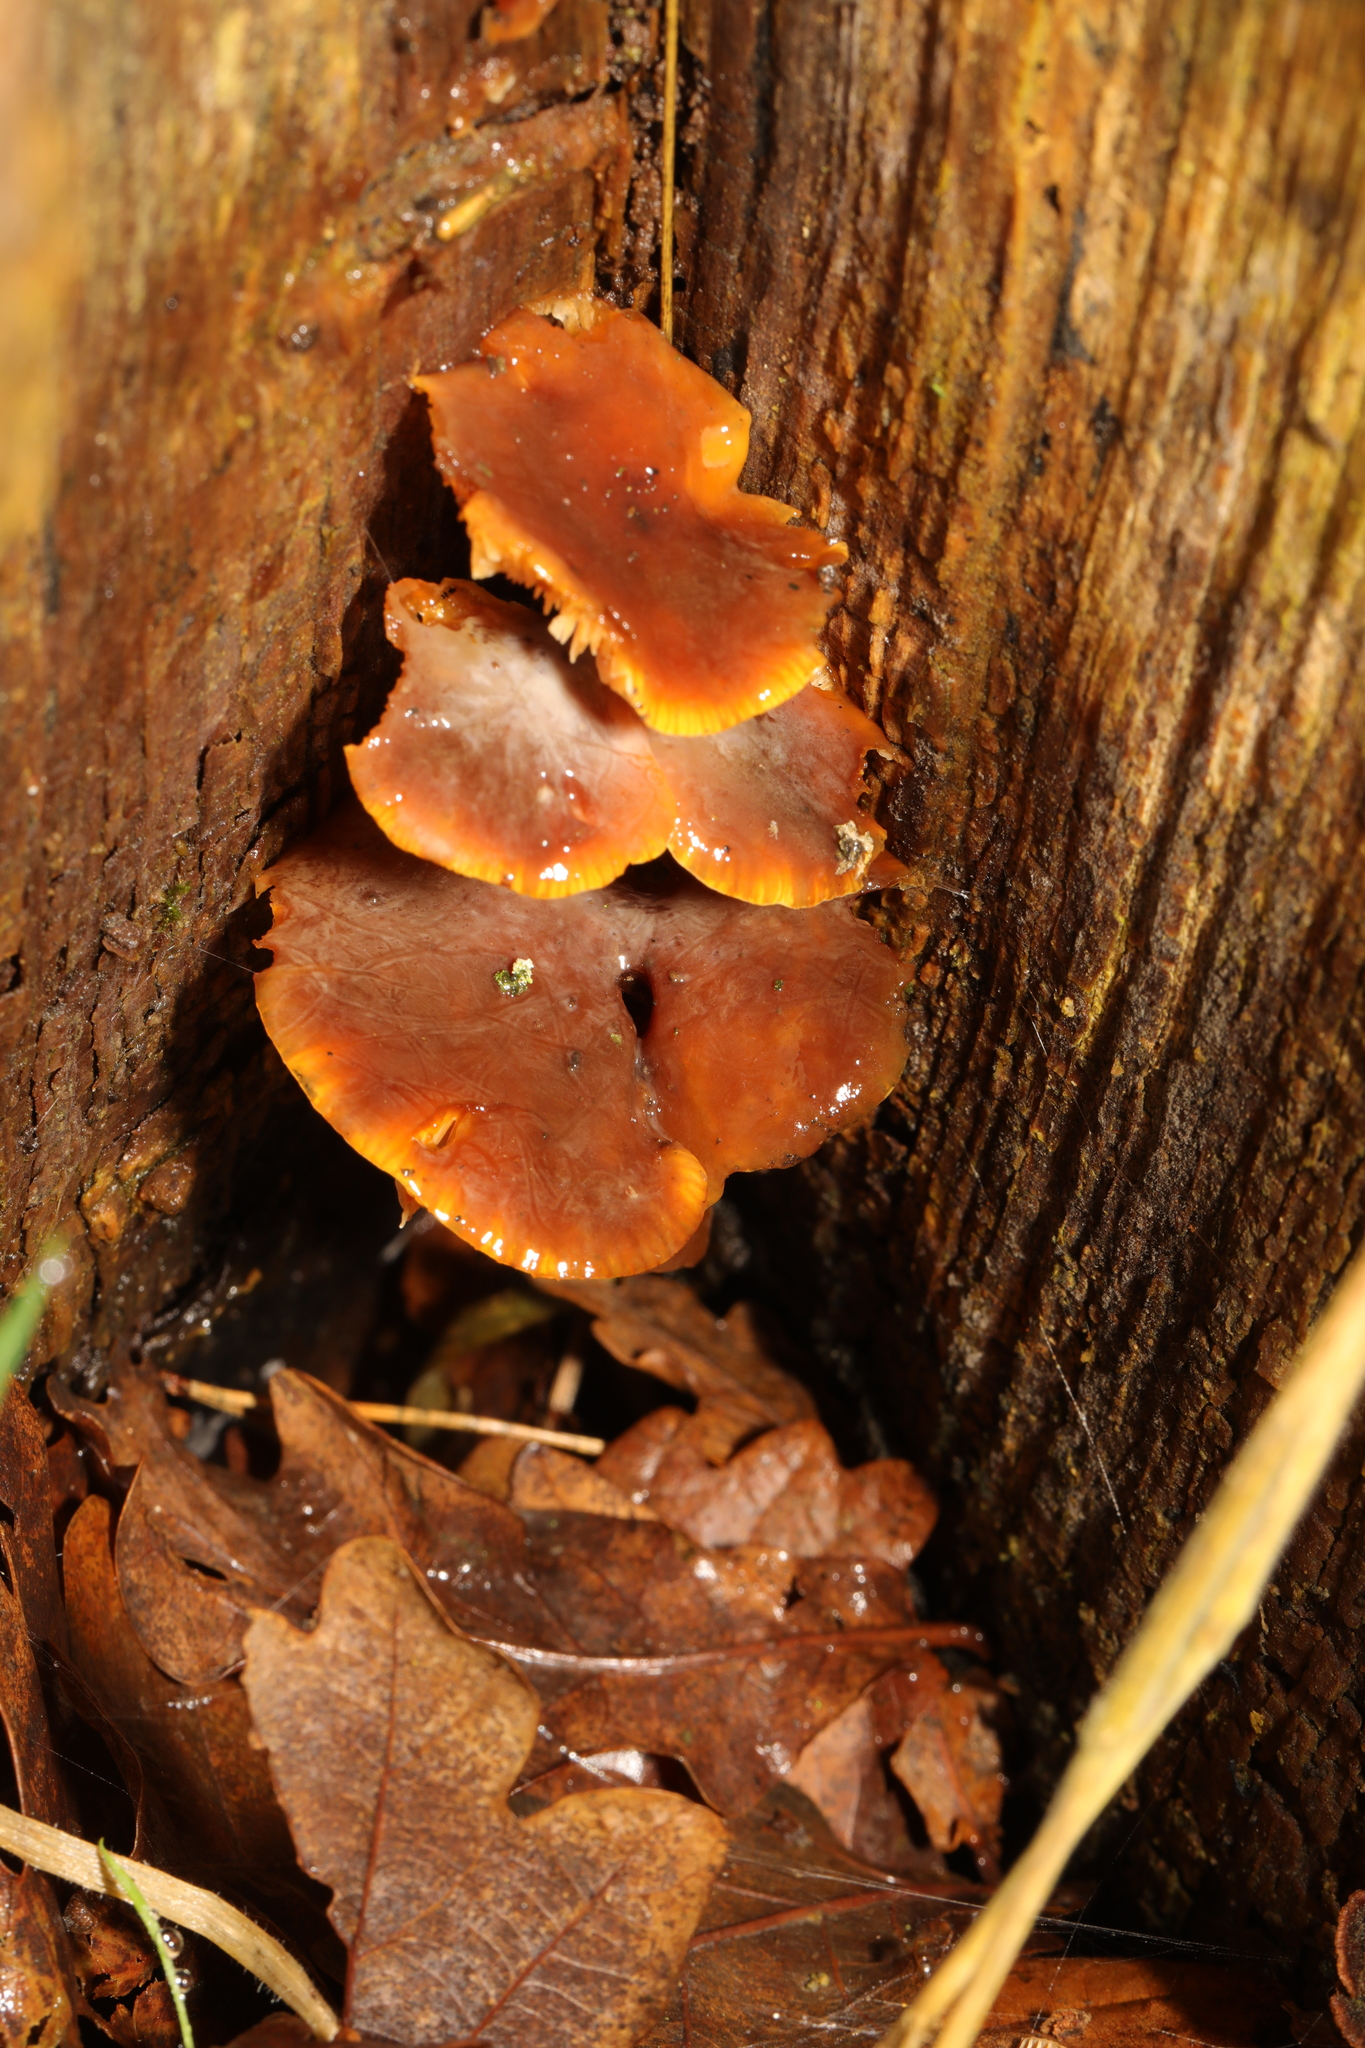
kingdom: Fungi
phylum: Basidiomycota
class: Agaricomycetes
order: Agaricales
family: Physalacriaceae
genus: Flammulina
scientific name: Flammulina
